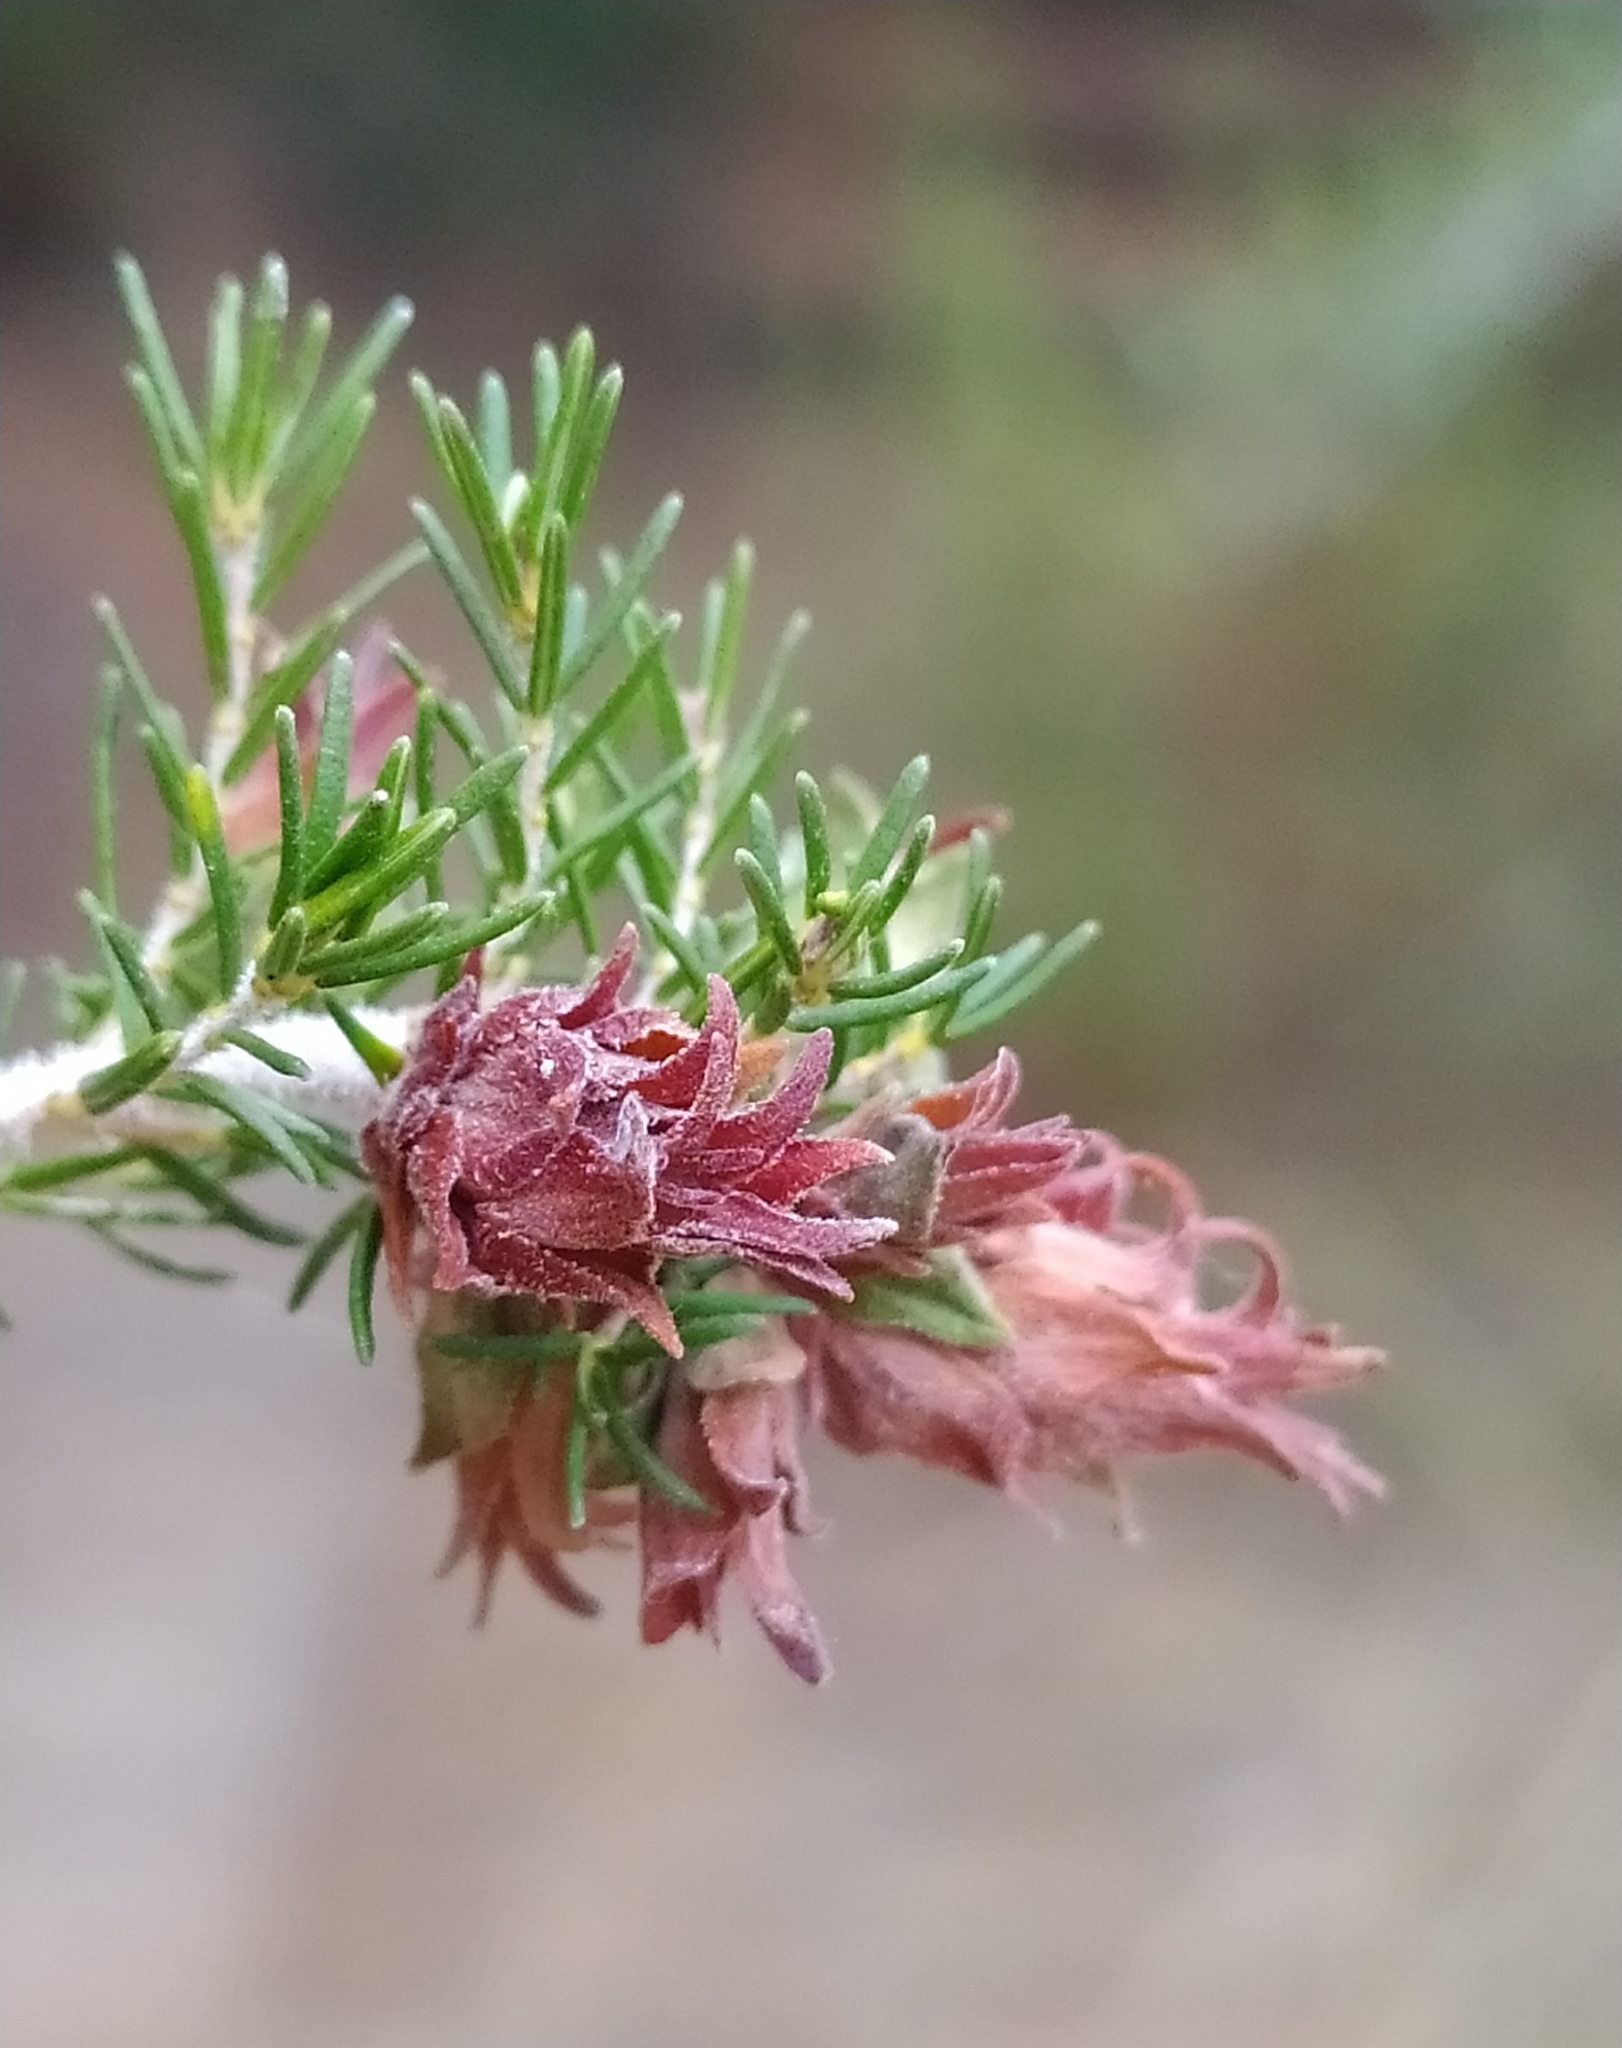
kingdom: Plantae
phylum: Tracheophyta
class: Magnoliopsida
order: Ericales
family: Ericaceae
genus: Erica
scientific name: Erica arborea
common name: Tree heath
